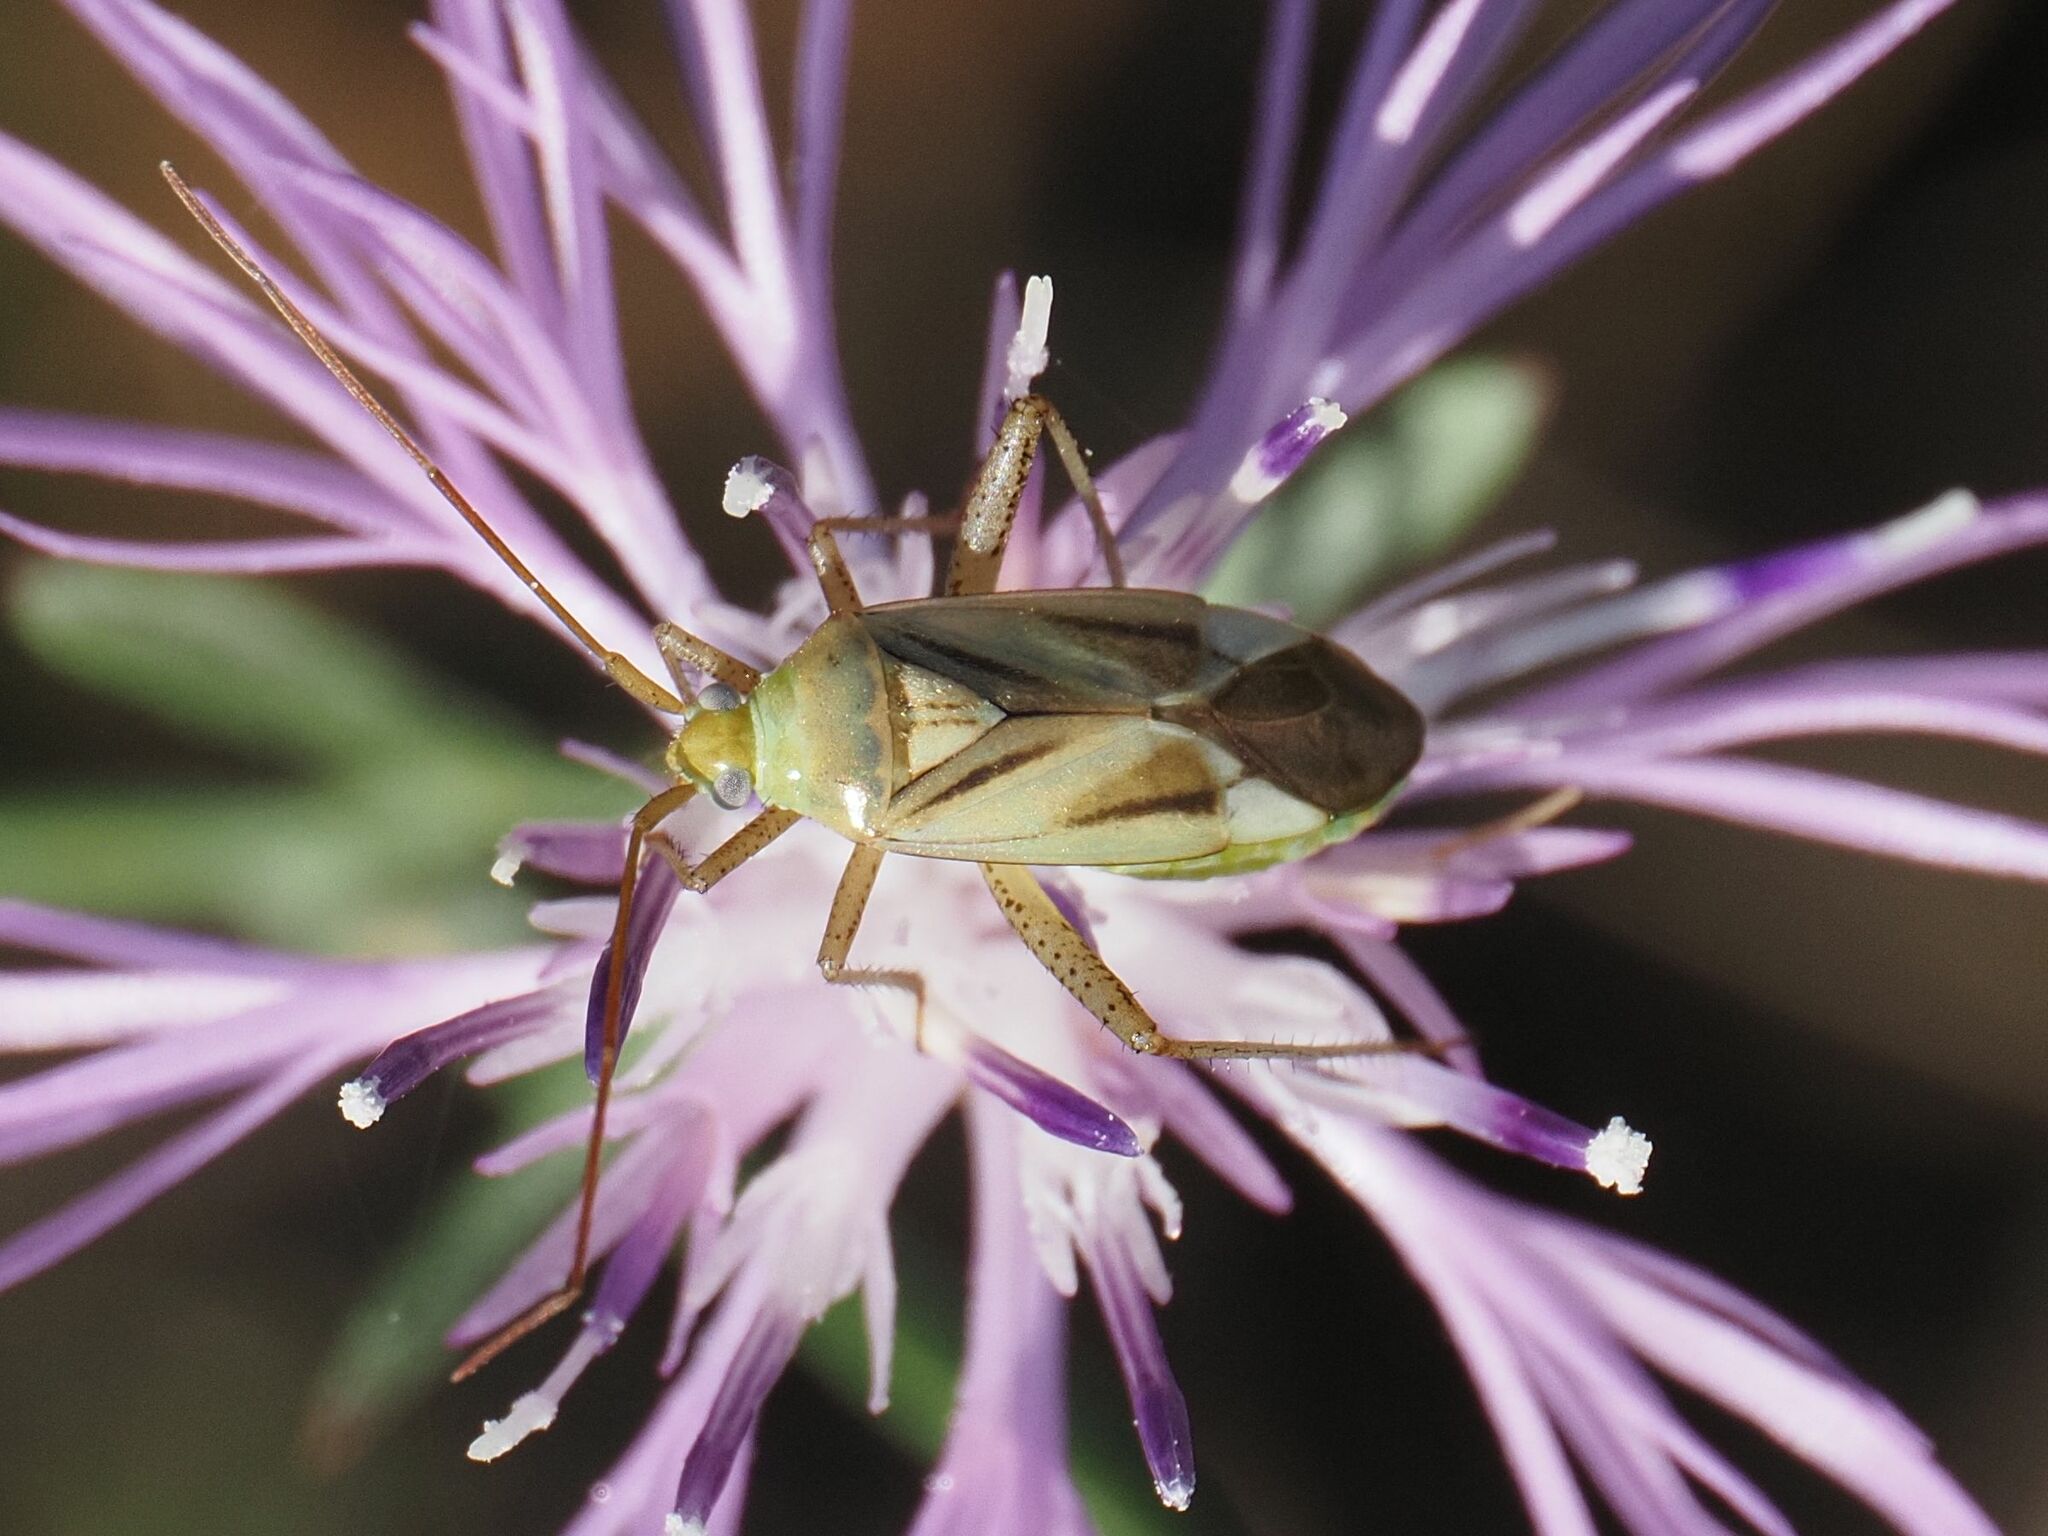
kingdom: Animalia
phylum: Arthropoda
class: Insecta
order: Hemiptera
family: Miridae
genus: Adelphocoris
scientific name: Adelphocoris lineolatus
